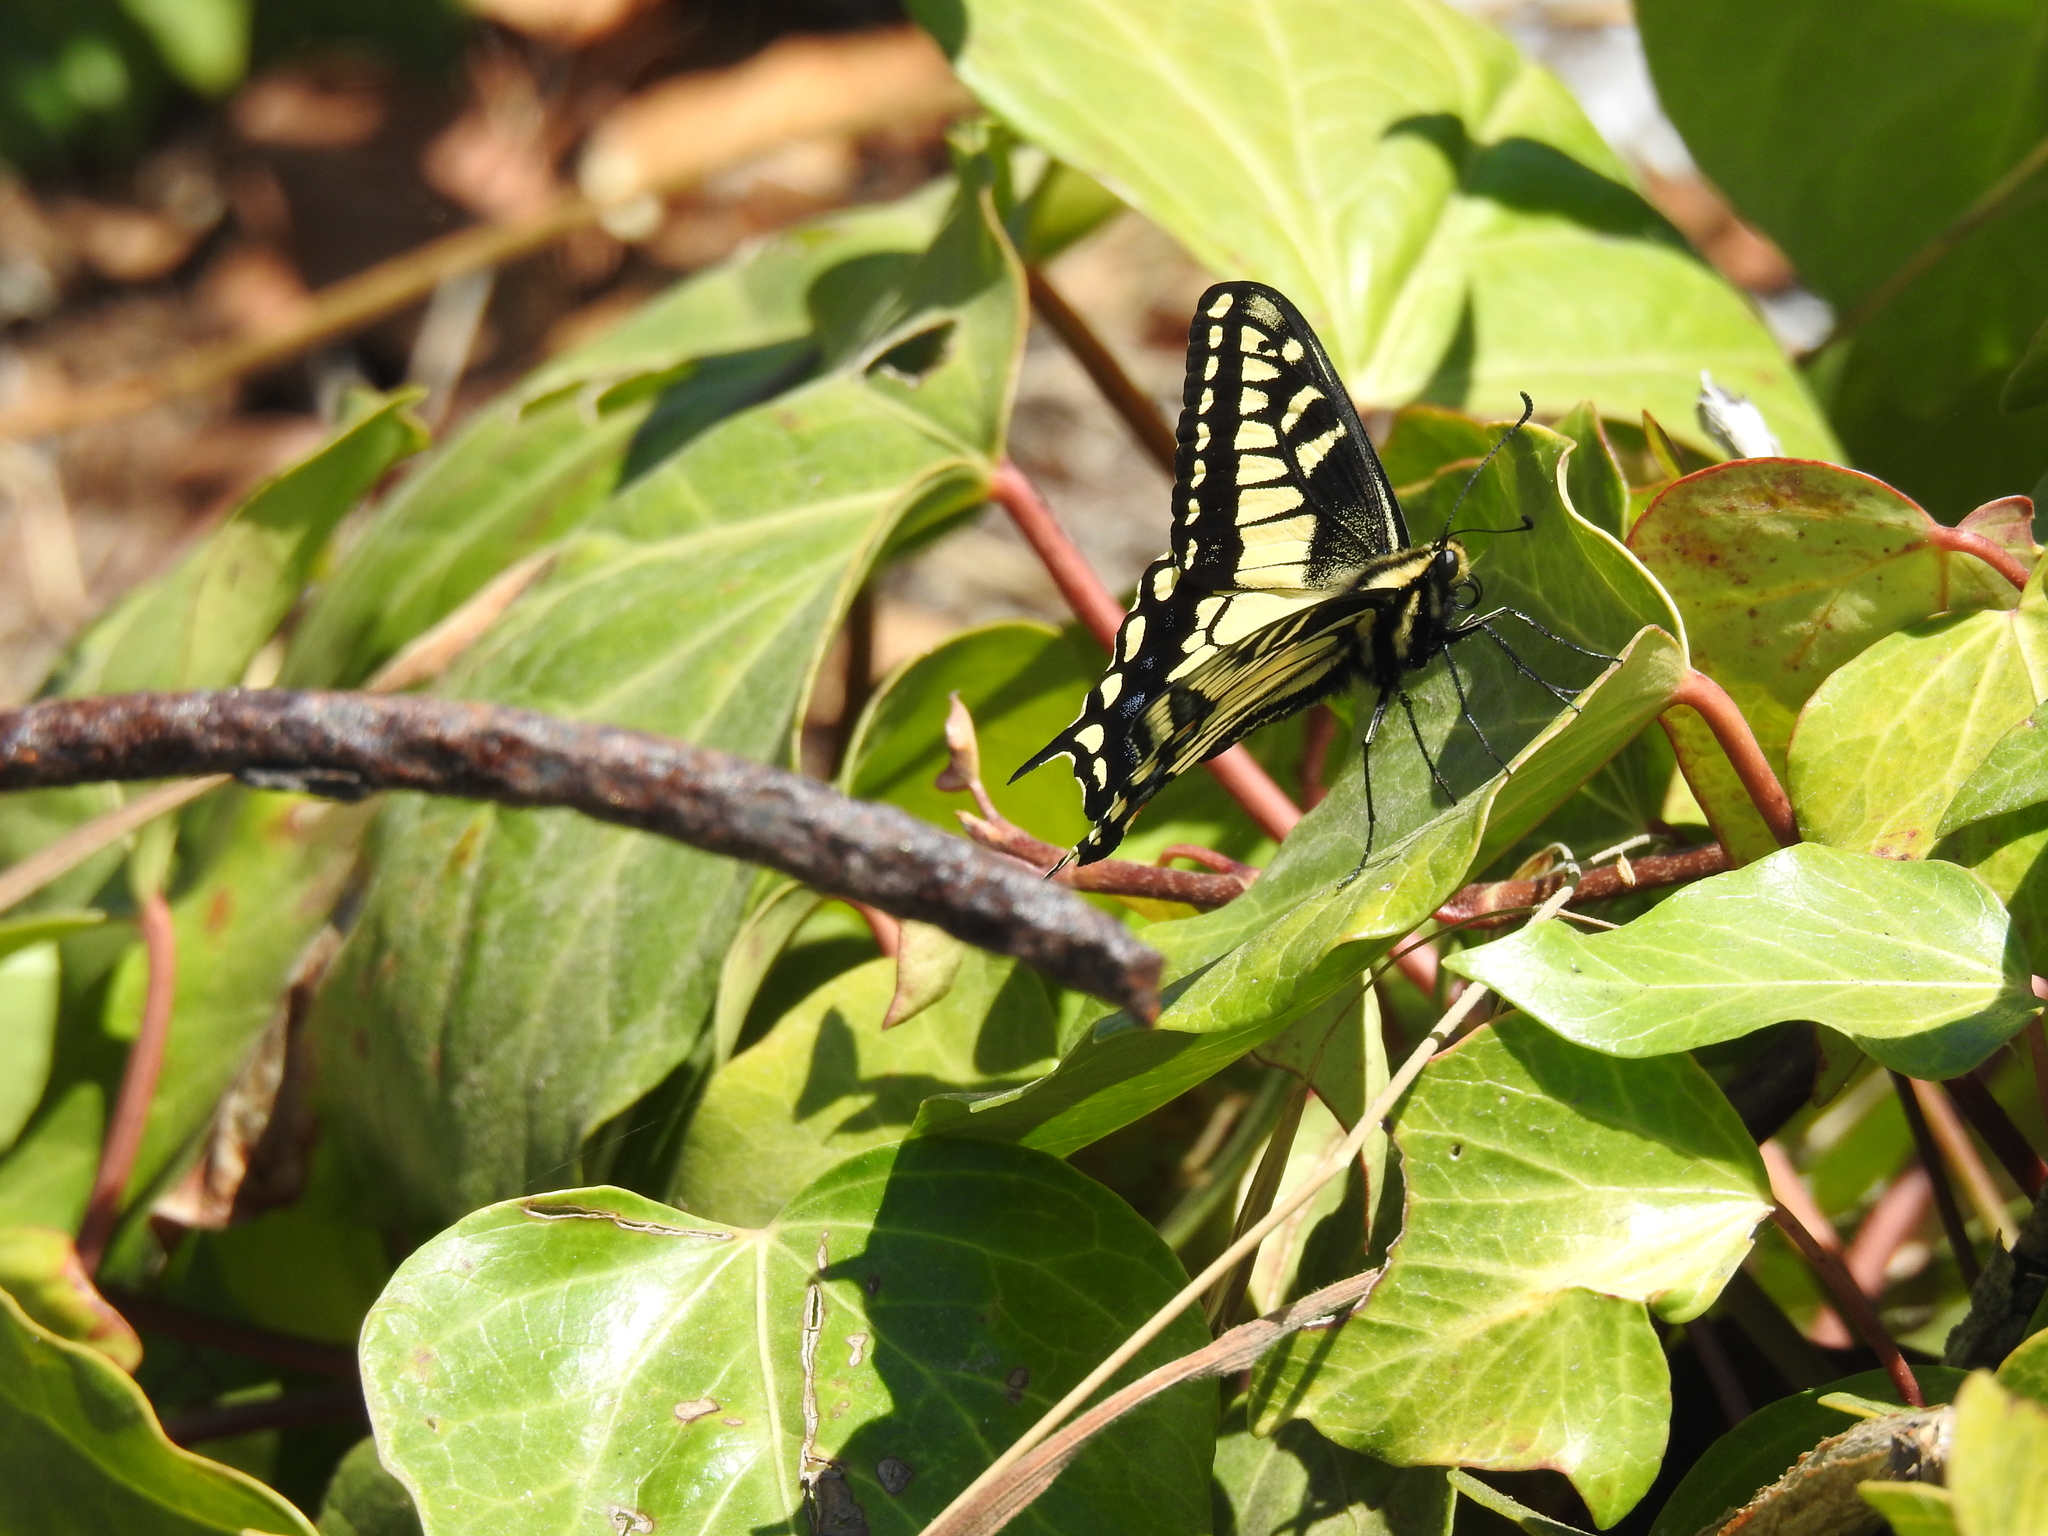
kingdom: Animalia
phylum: Arthropoda
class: Insecta
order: Lepidoptera
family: Papilionidae
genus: Papilio
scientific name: Papilio zelicaon
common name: Anise swallowtail
